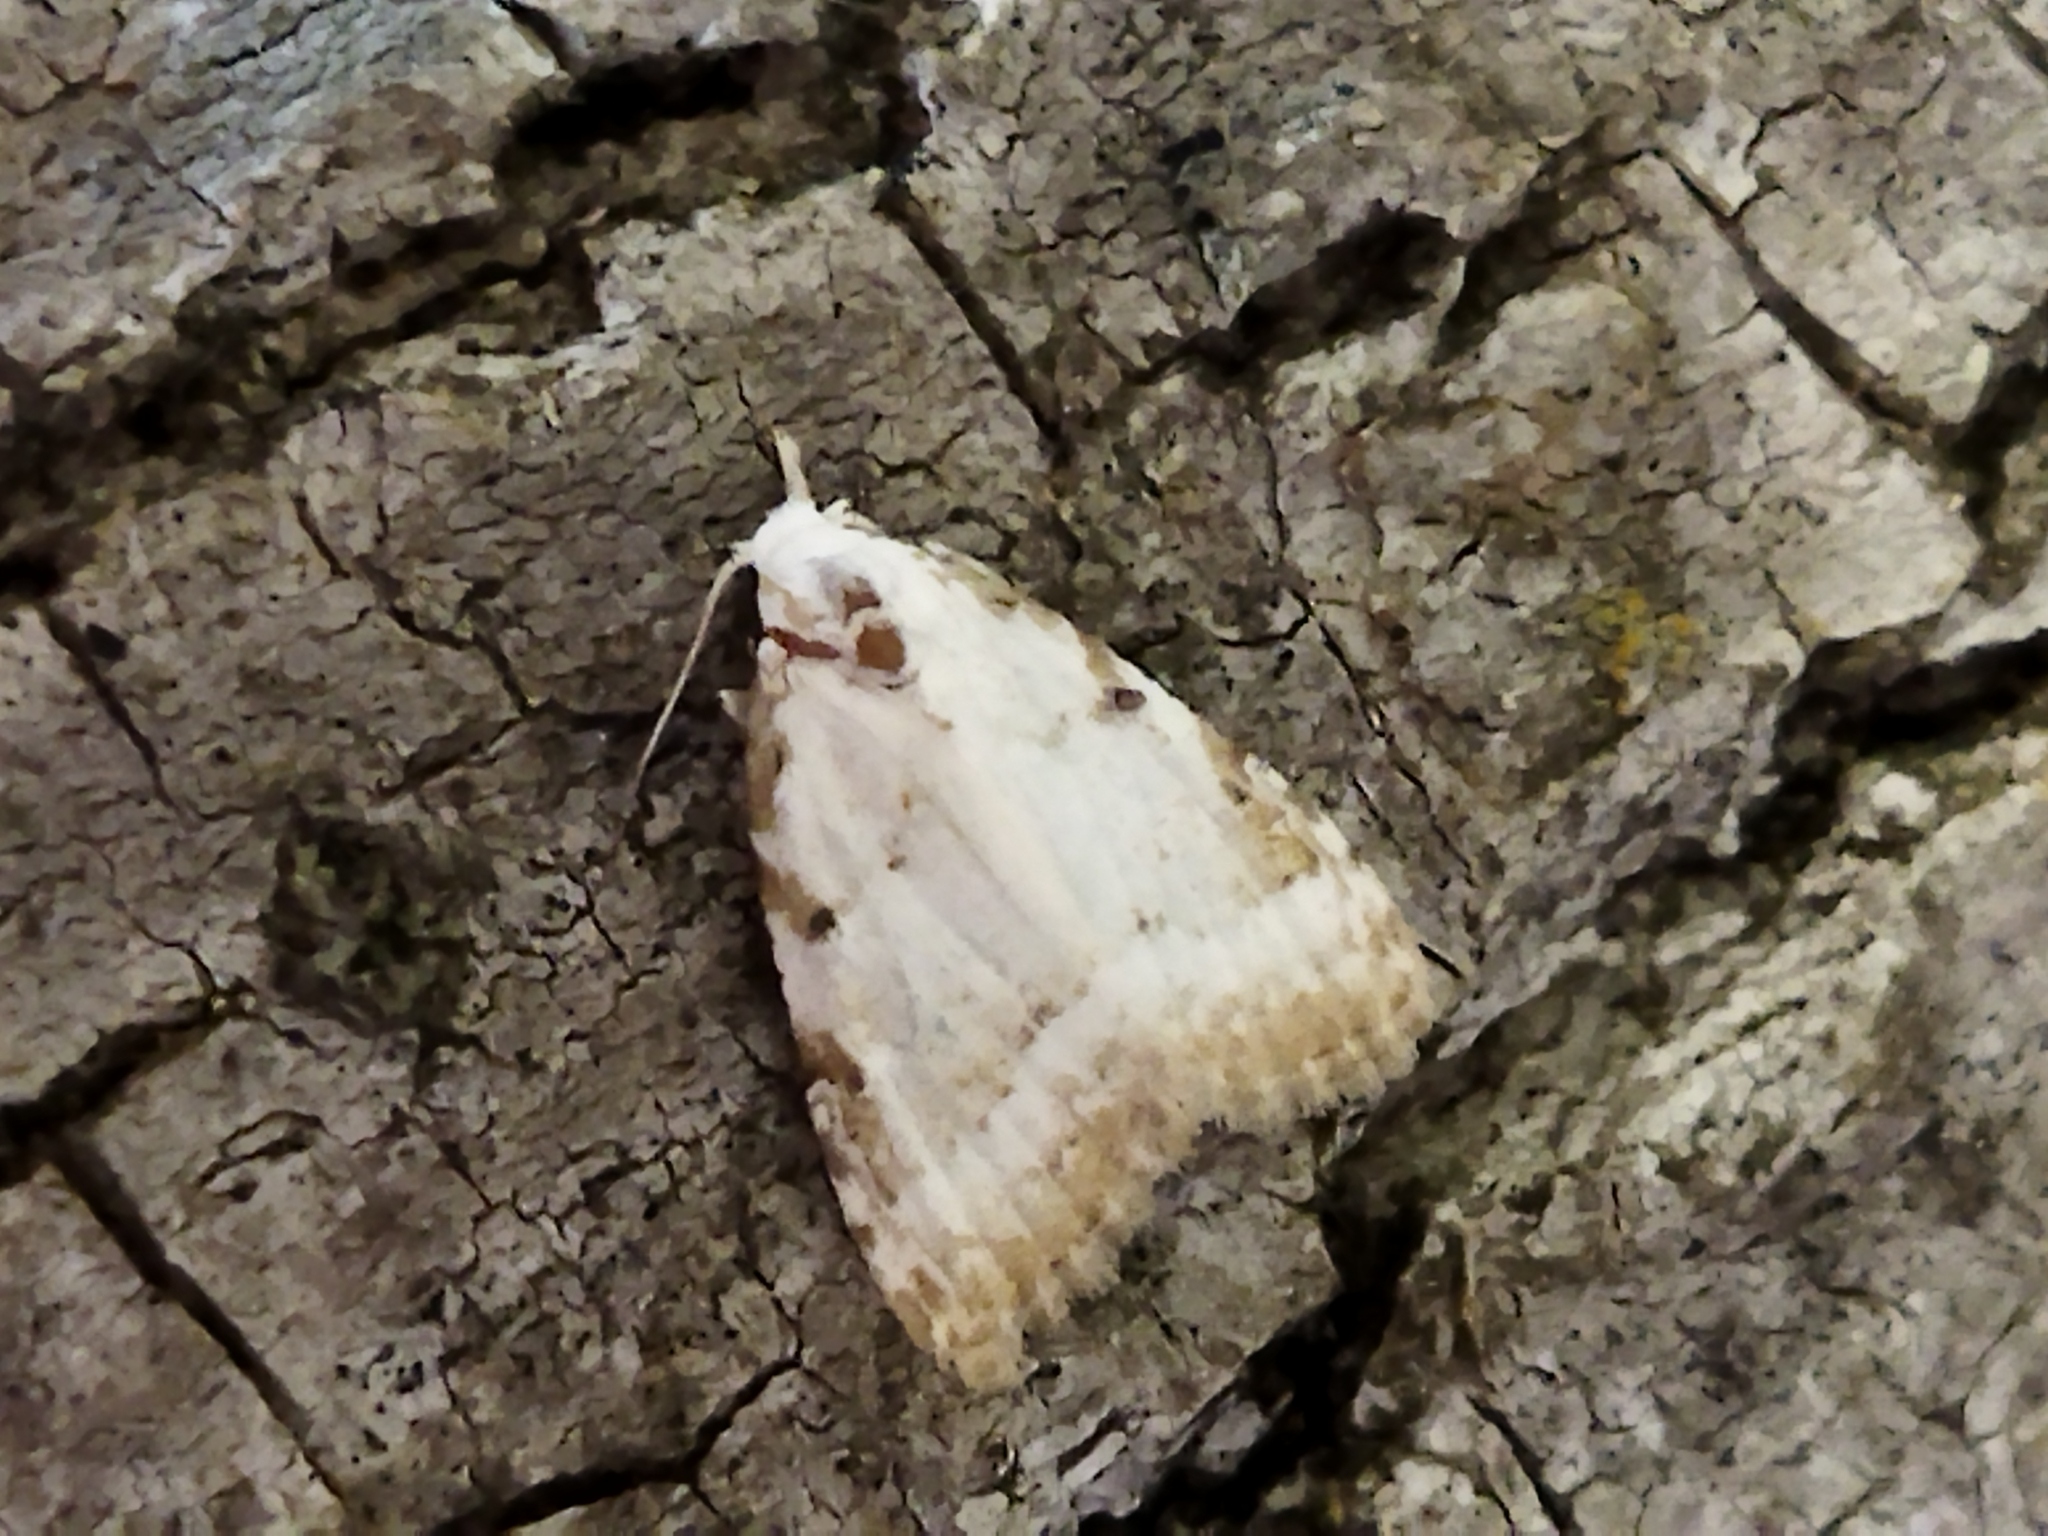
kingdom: Animalia
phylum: Arthropoda
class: Insecta
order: Lepidoptera
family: Nolidae
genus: Nola
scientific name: Nola aerugula
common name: Scarce black arches
